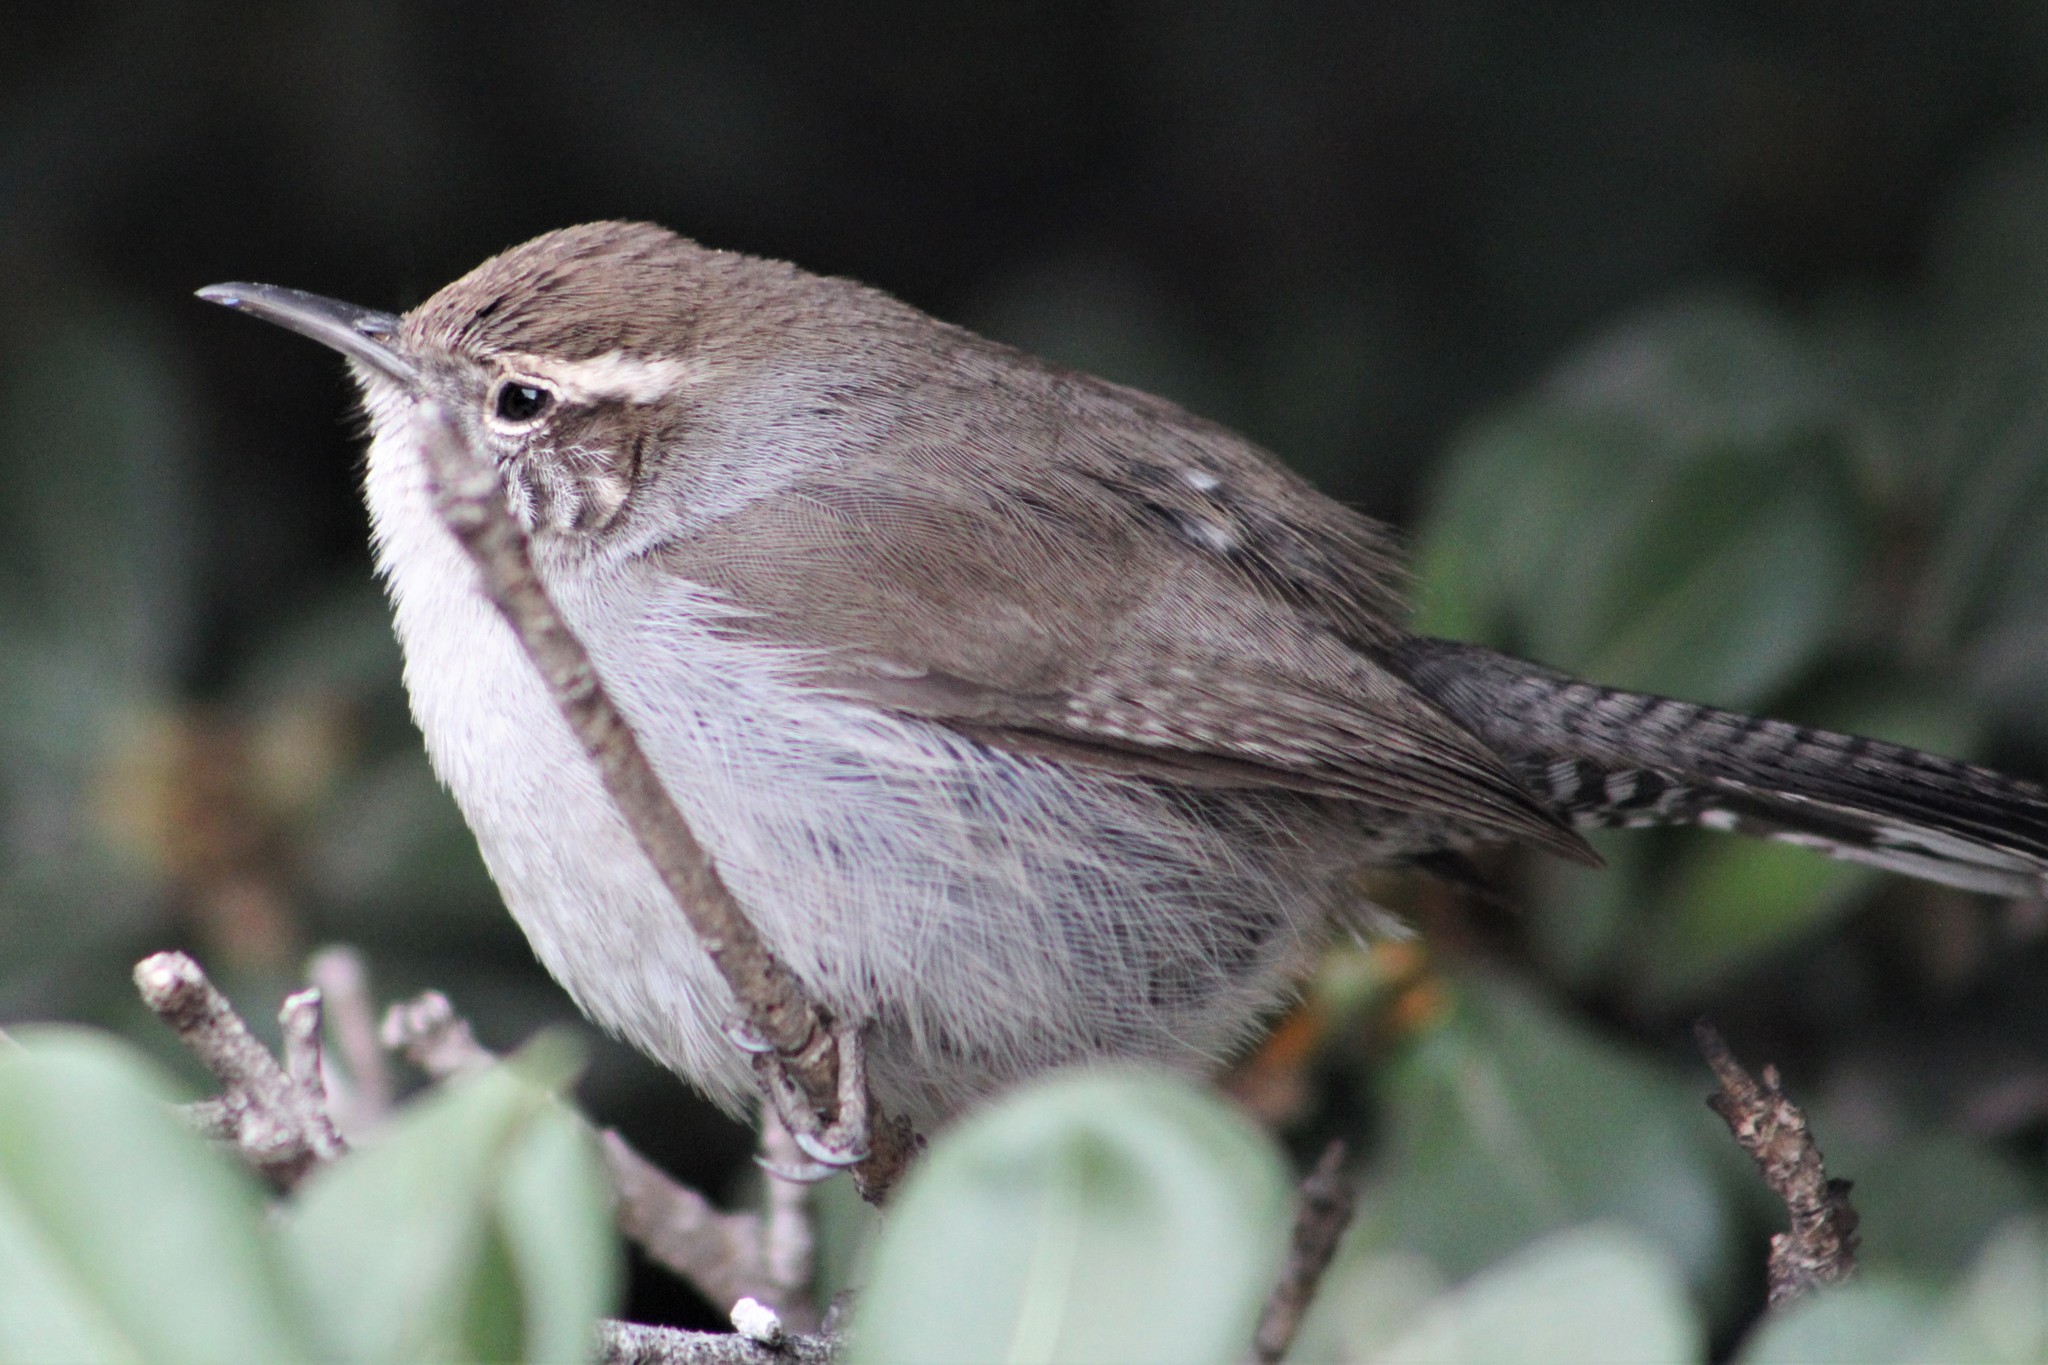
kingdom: Animalia
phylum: Chordata
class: Aves
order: Passeriformes
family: Troglodytidae
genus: Thryomanes
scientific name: Thryomanes bewickii
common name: Bewick's wren
